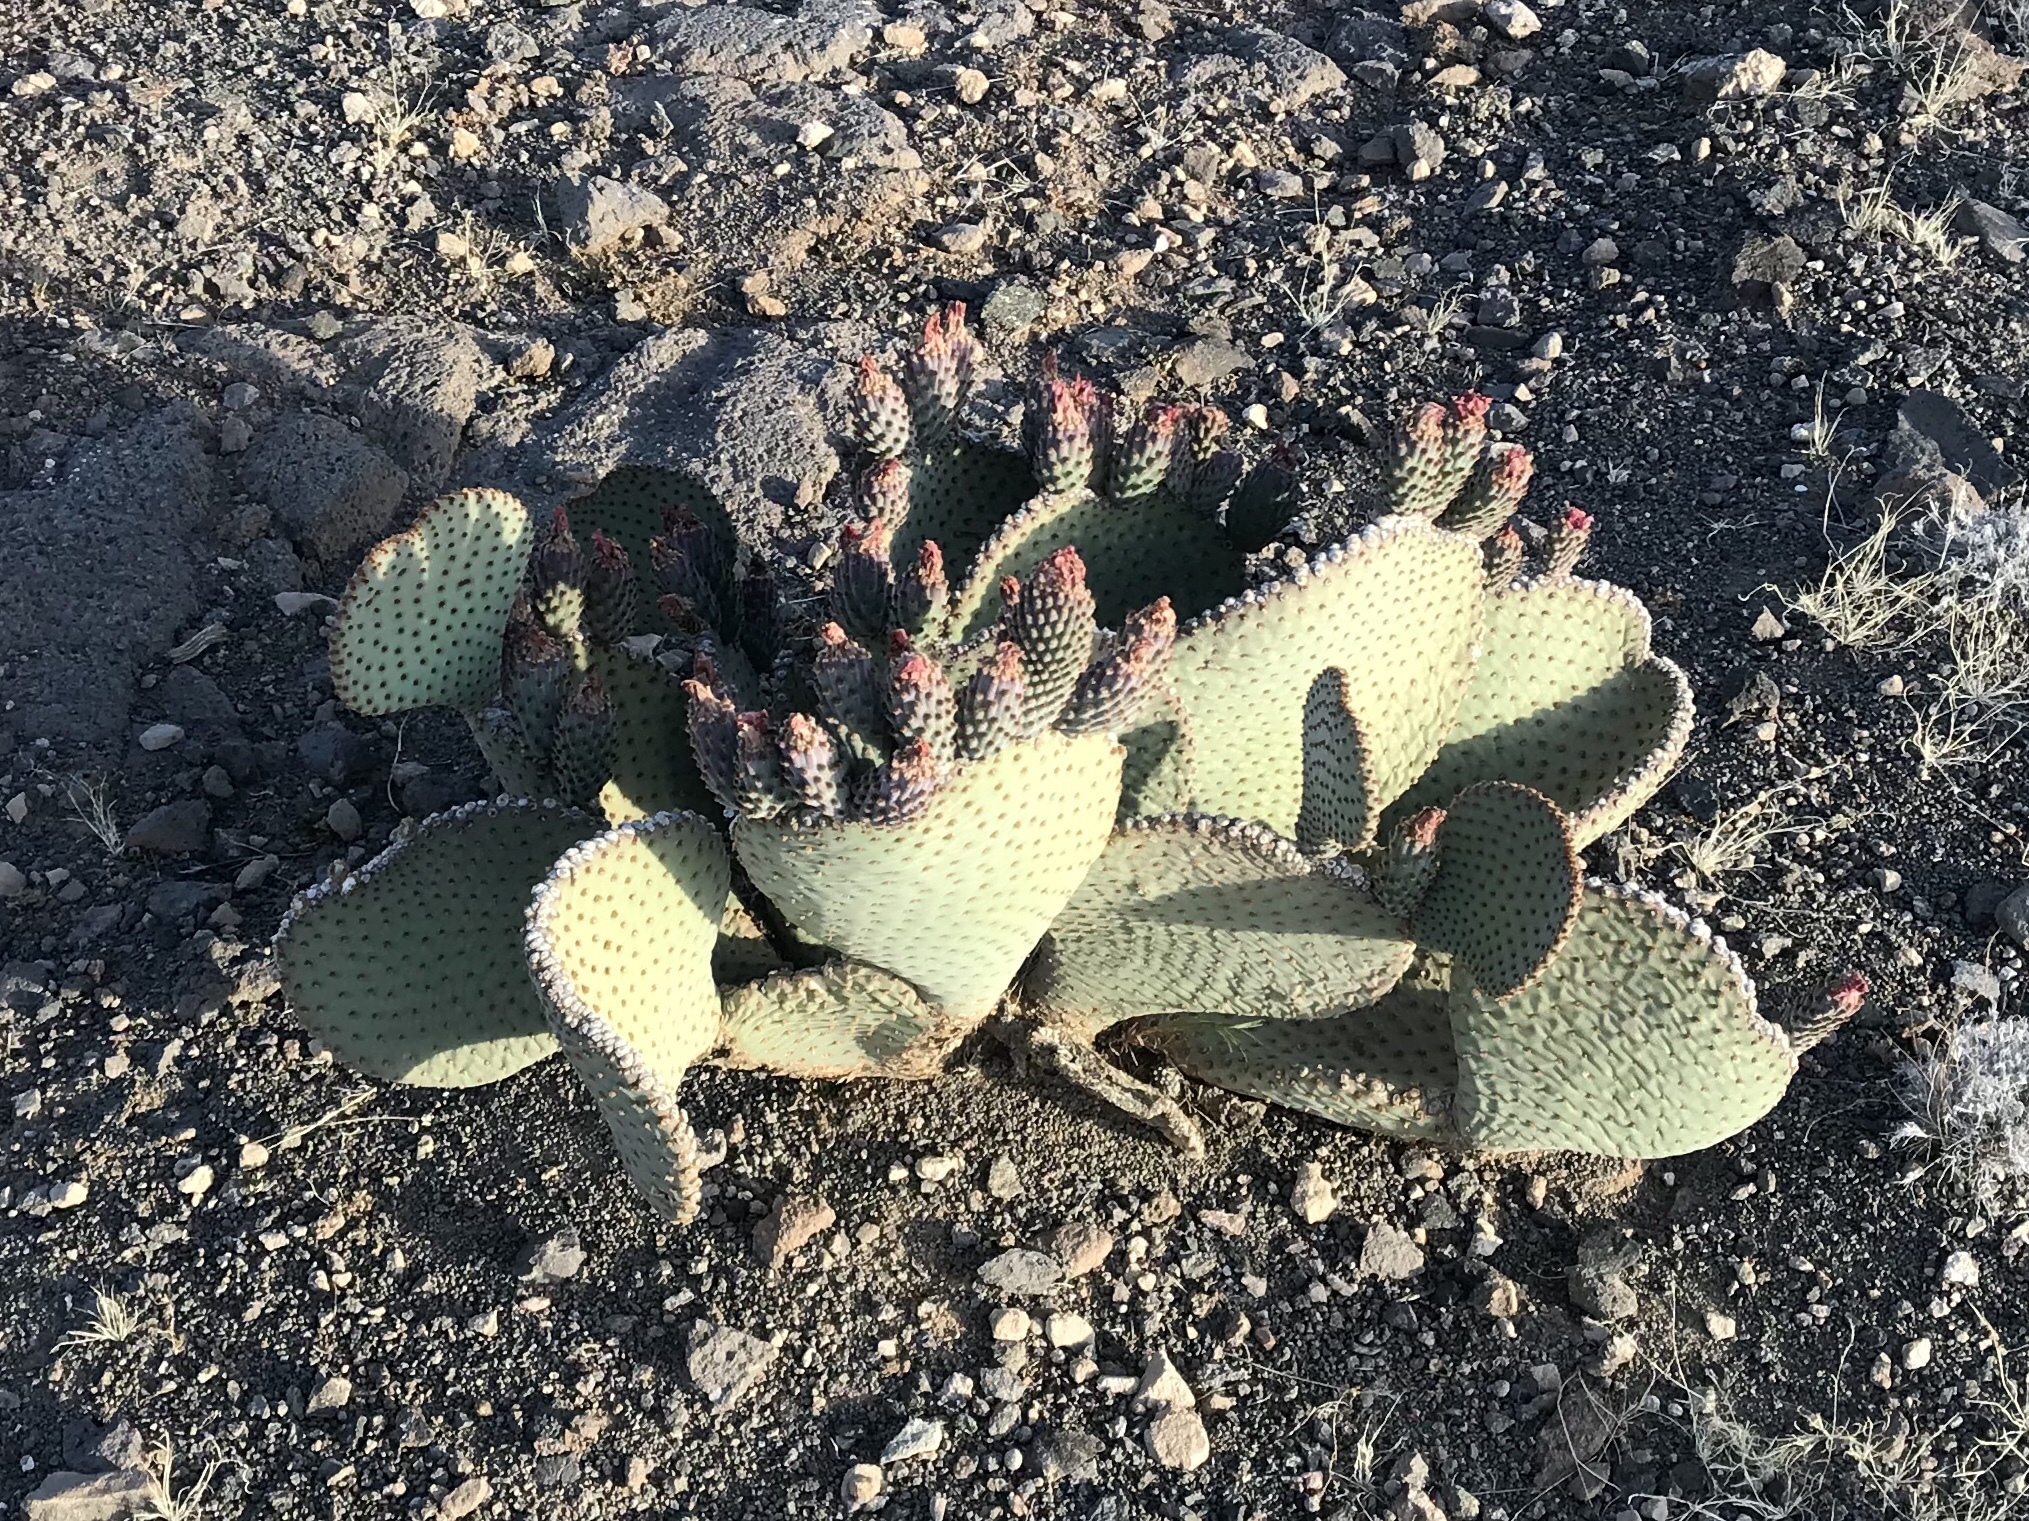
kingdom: Plantae
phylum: Tracheophyta
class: Magnoliopsida
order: Caryophyllales
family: Cactaceae
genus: Opuntia
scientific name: Opuntia basilaris
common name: Beavertail prickly-pear
